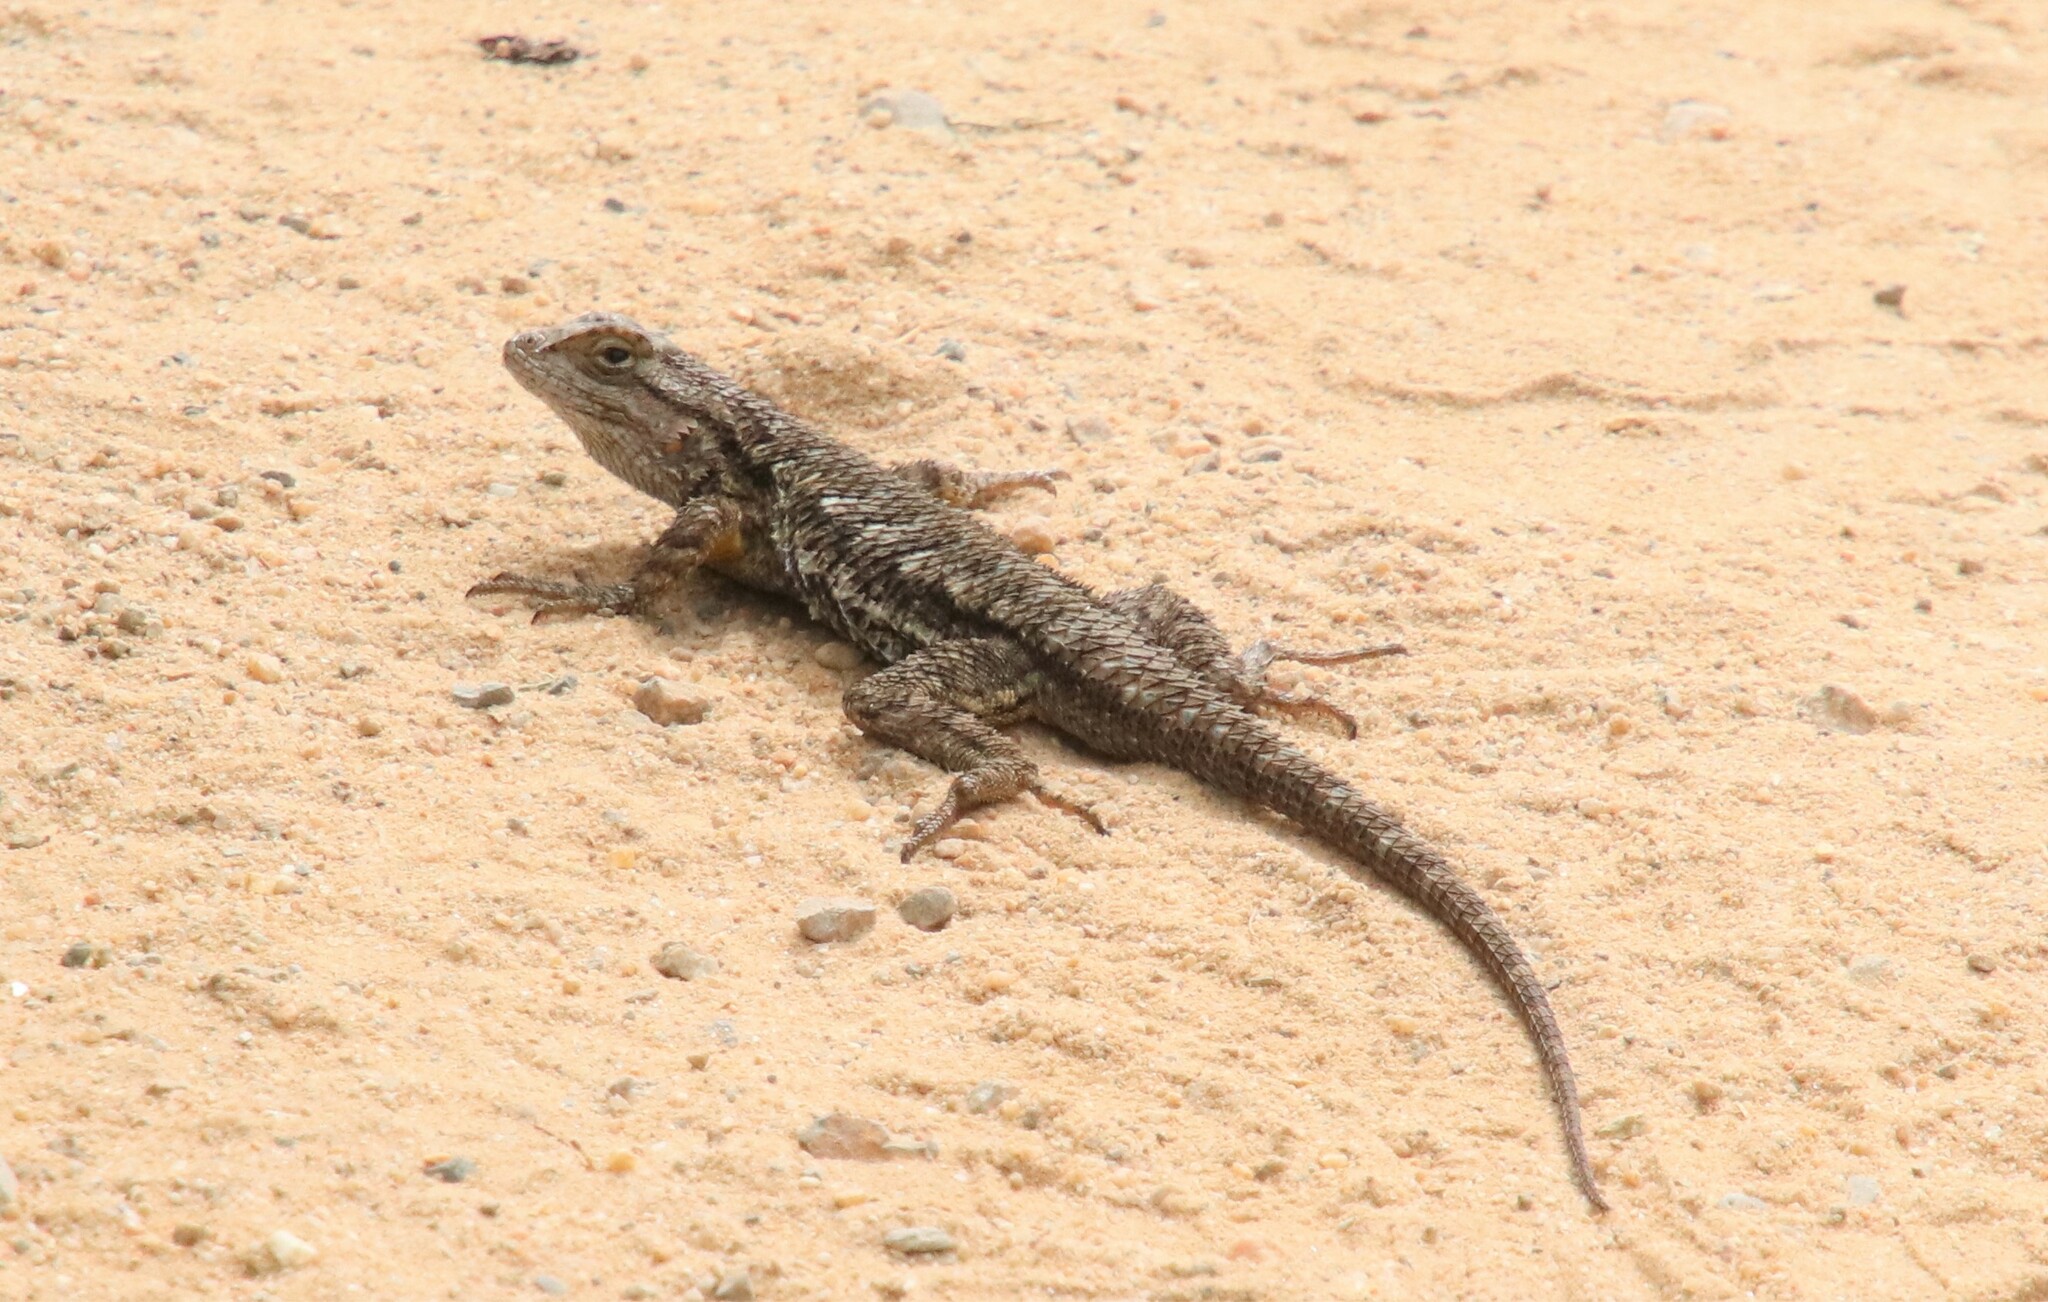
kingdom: Animalia
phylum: Chordata
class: Squamata
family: Phrynosomatidae
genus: Sceloporus
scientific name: Sceloporus occidentalis
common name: Western fence lizard
